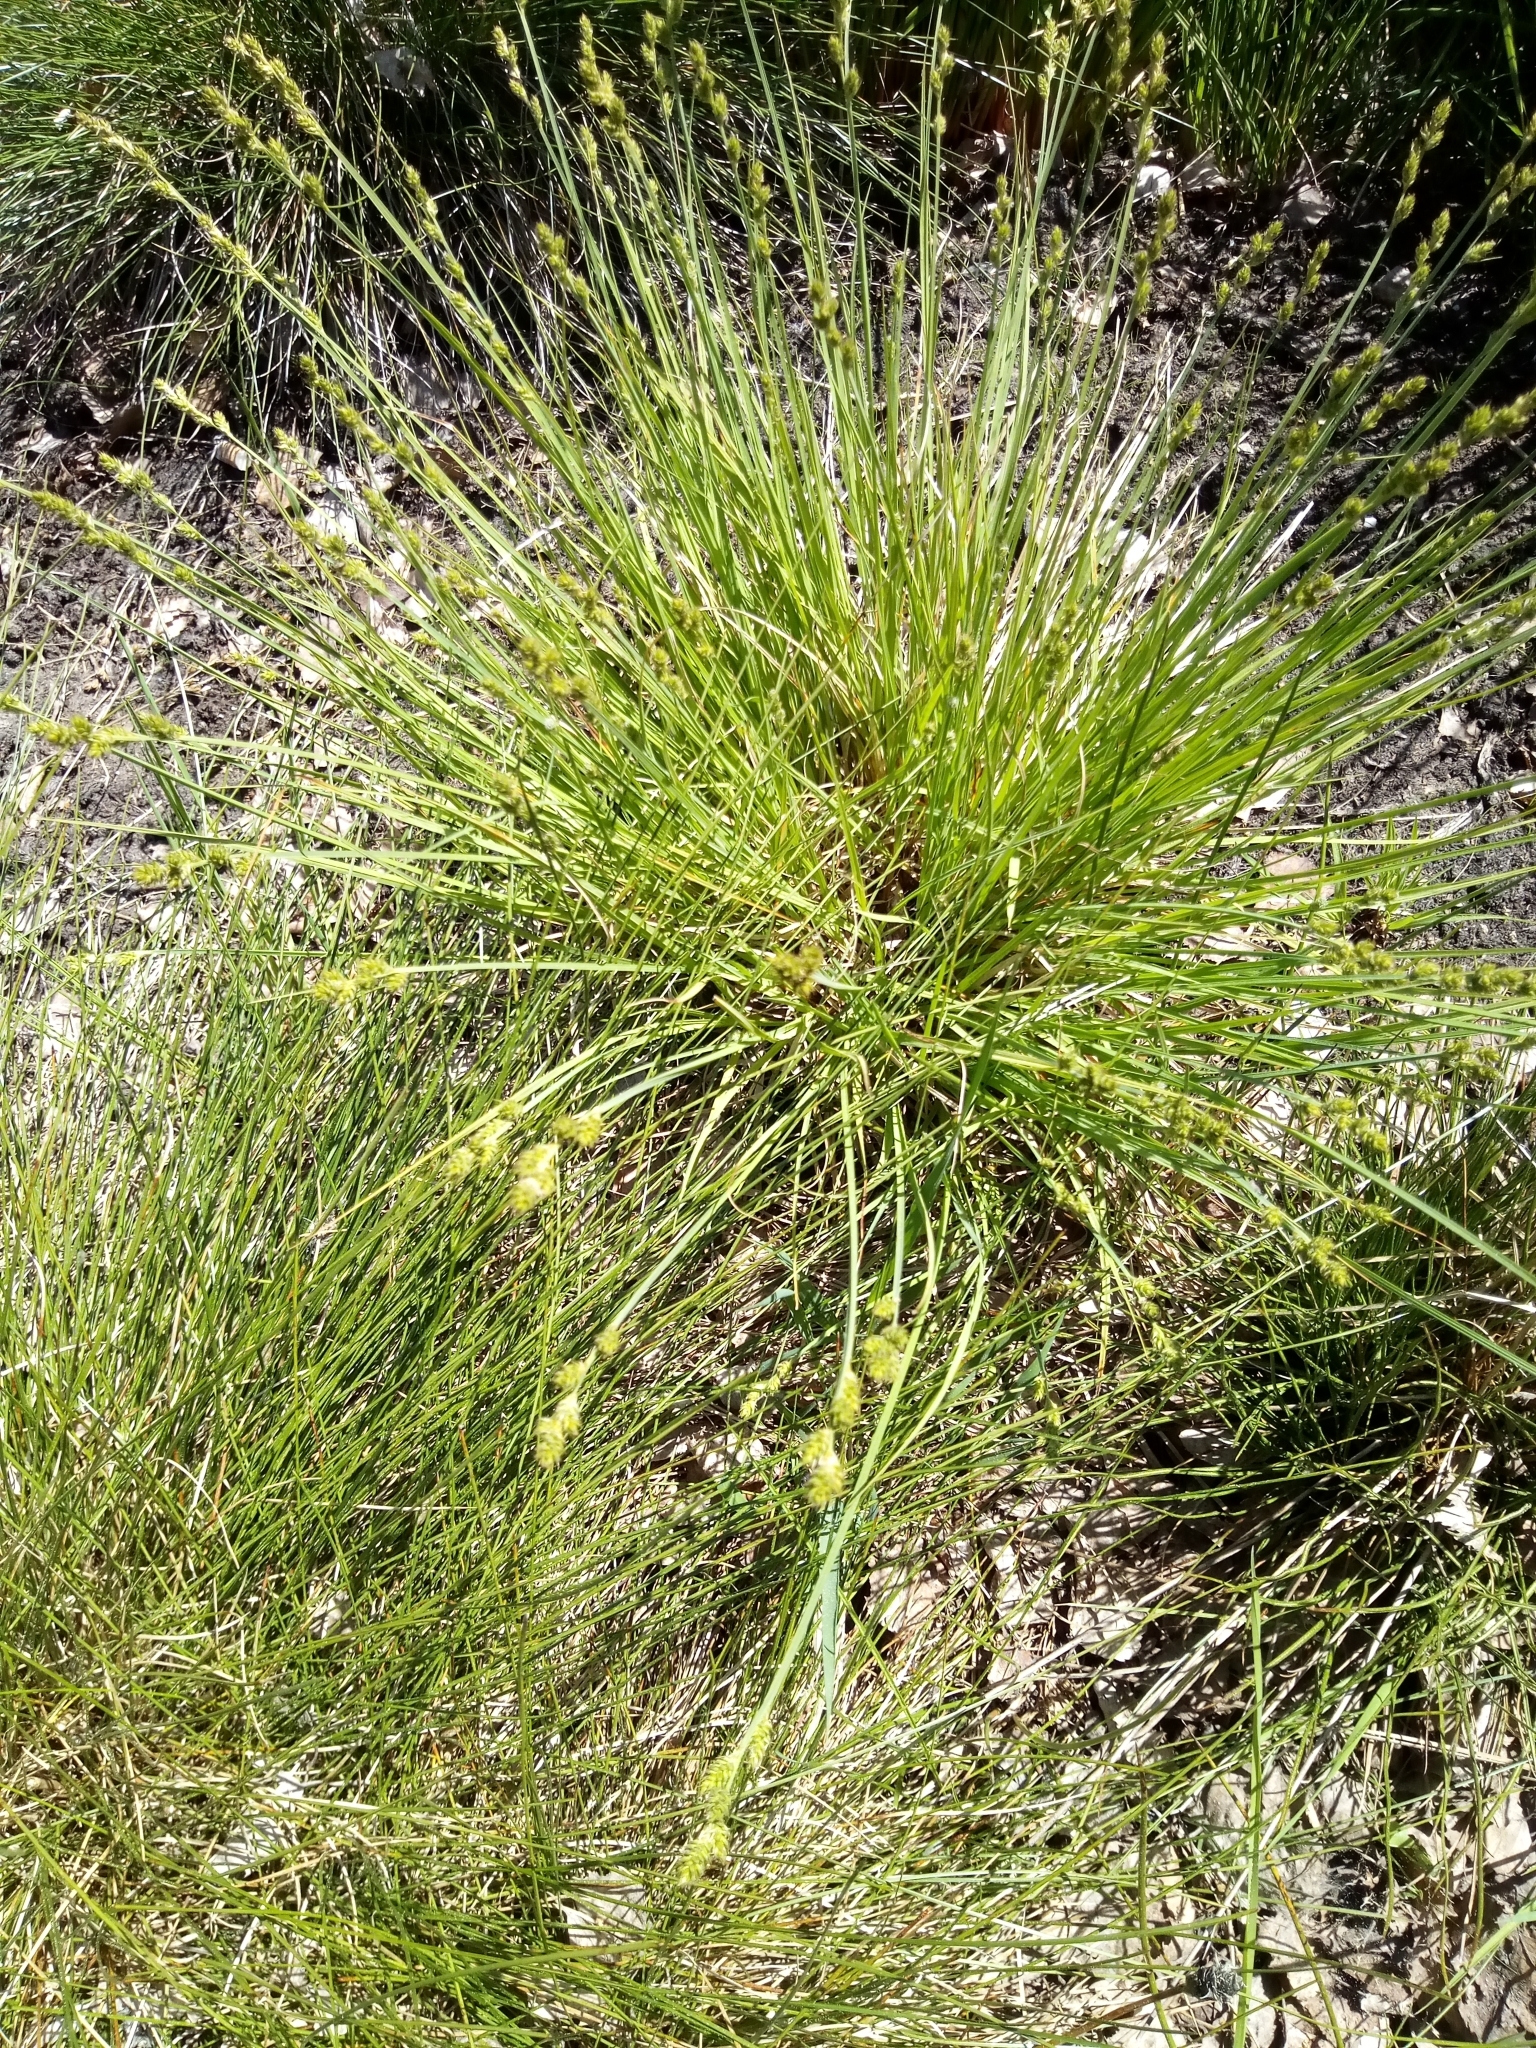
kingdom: Plantae
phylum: Tracheophyta
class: Liliopsida
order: Poales
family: Cyperaceae
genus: Carex
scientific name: Carex canescens
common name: White sedge
